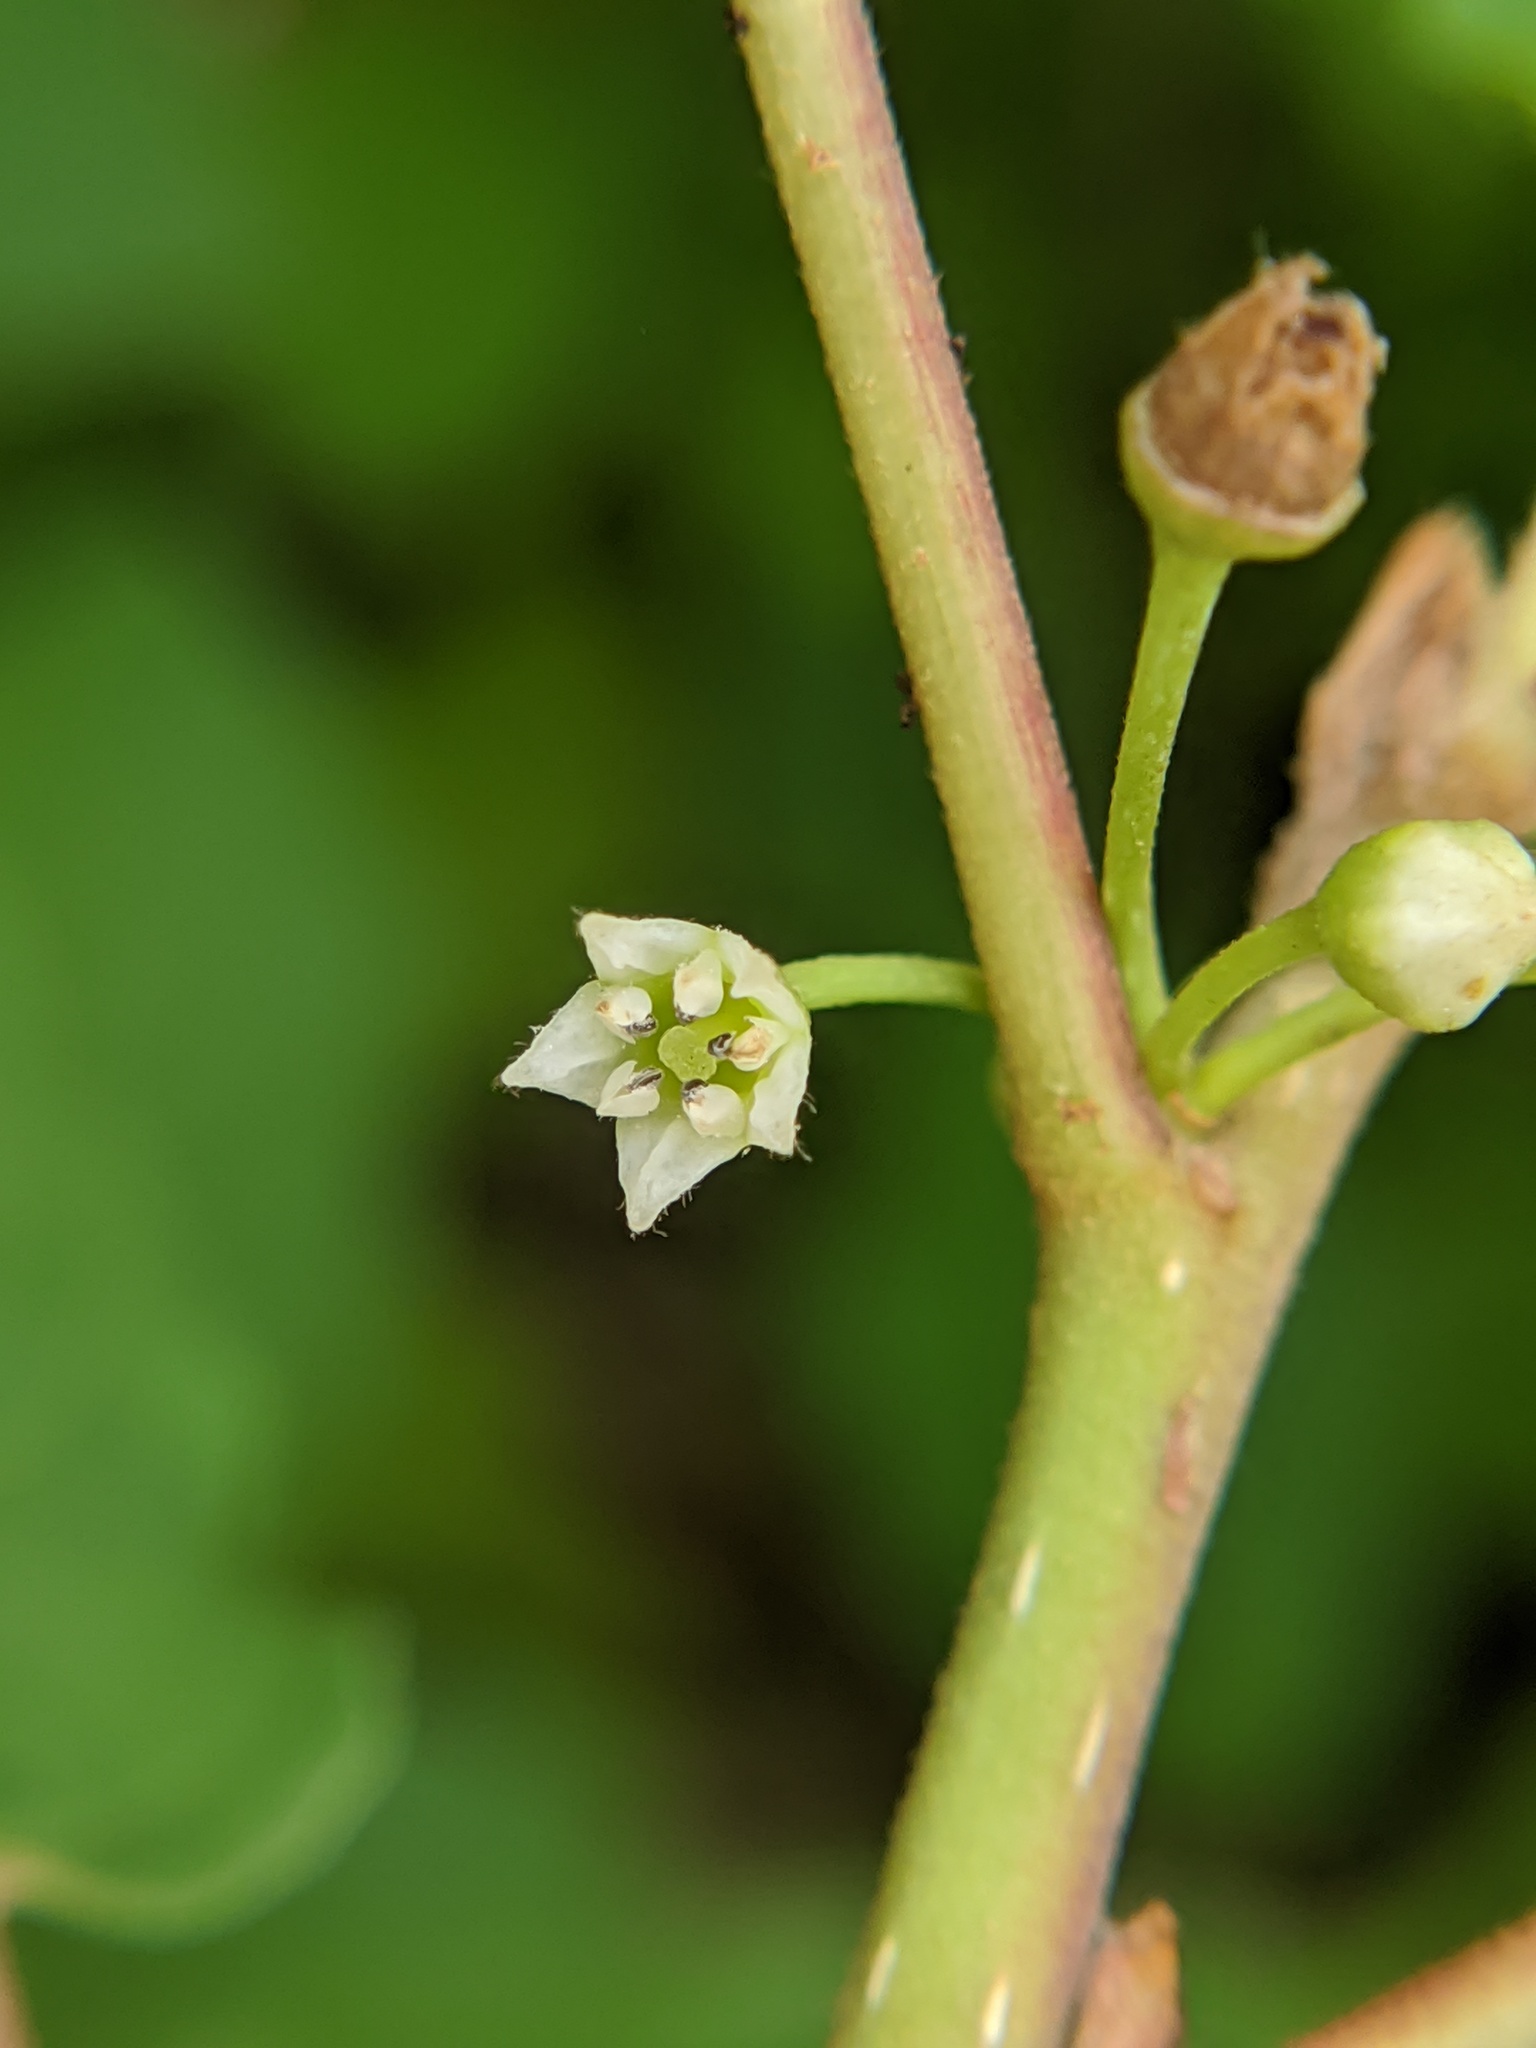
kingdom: Plantae
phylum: Tracheophyta
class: Magnoliopsida
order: Rosales
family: Rhamnaceae
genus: Frangula
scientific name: Frangula alnus
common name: Alder buckthorn
